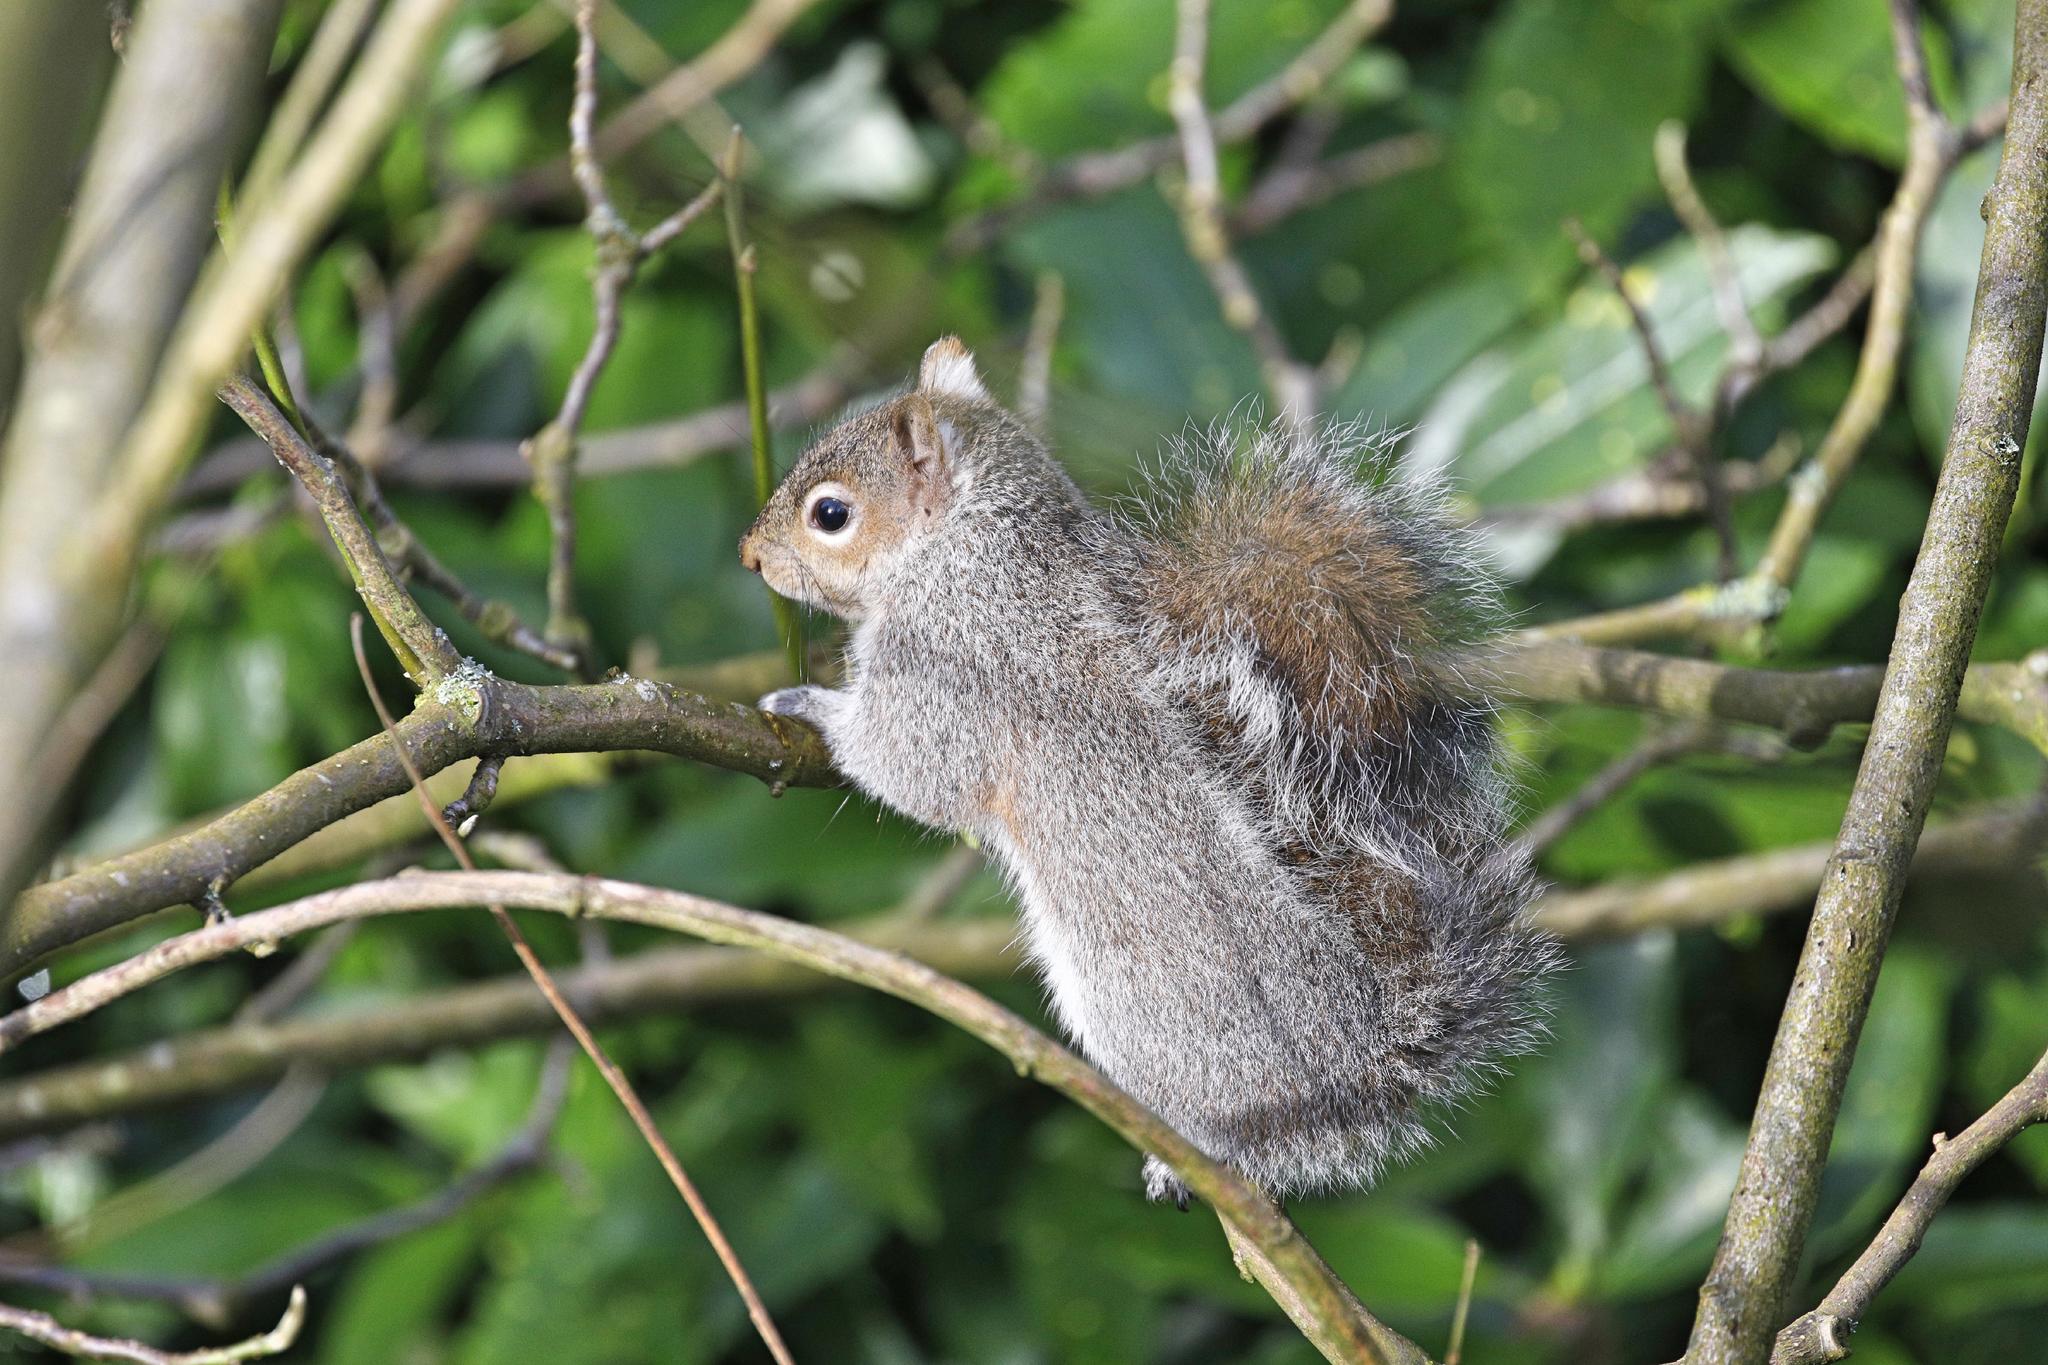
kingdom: Animalia
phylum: Chordata
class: Mammalia
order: Rodentia
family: Sciuridae
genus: Sciurus
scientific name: Sciurus carolinensis
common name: Eastern gray squirrel
